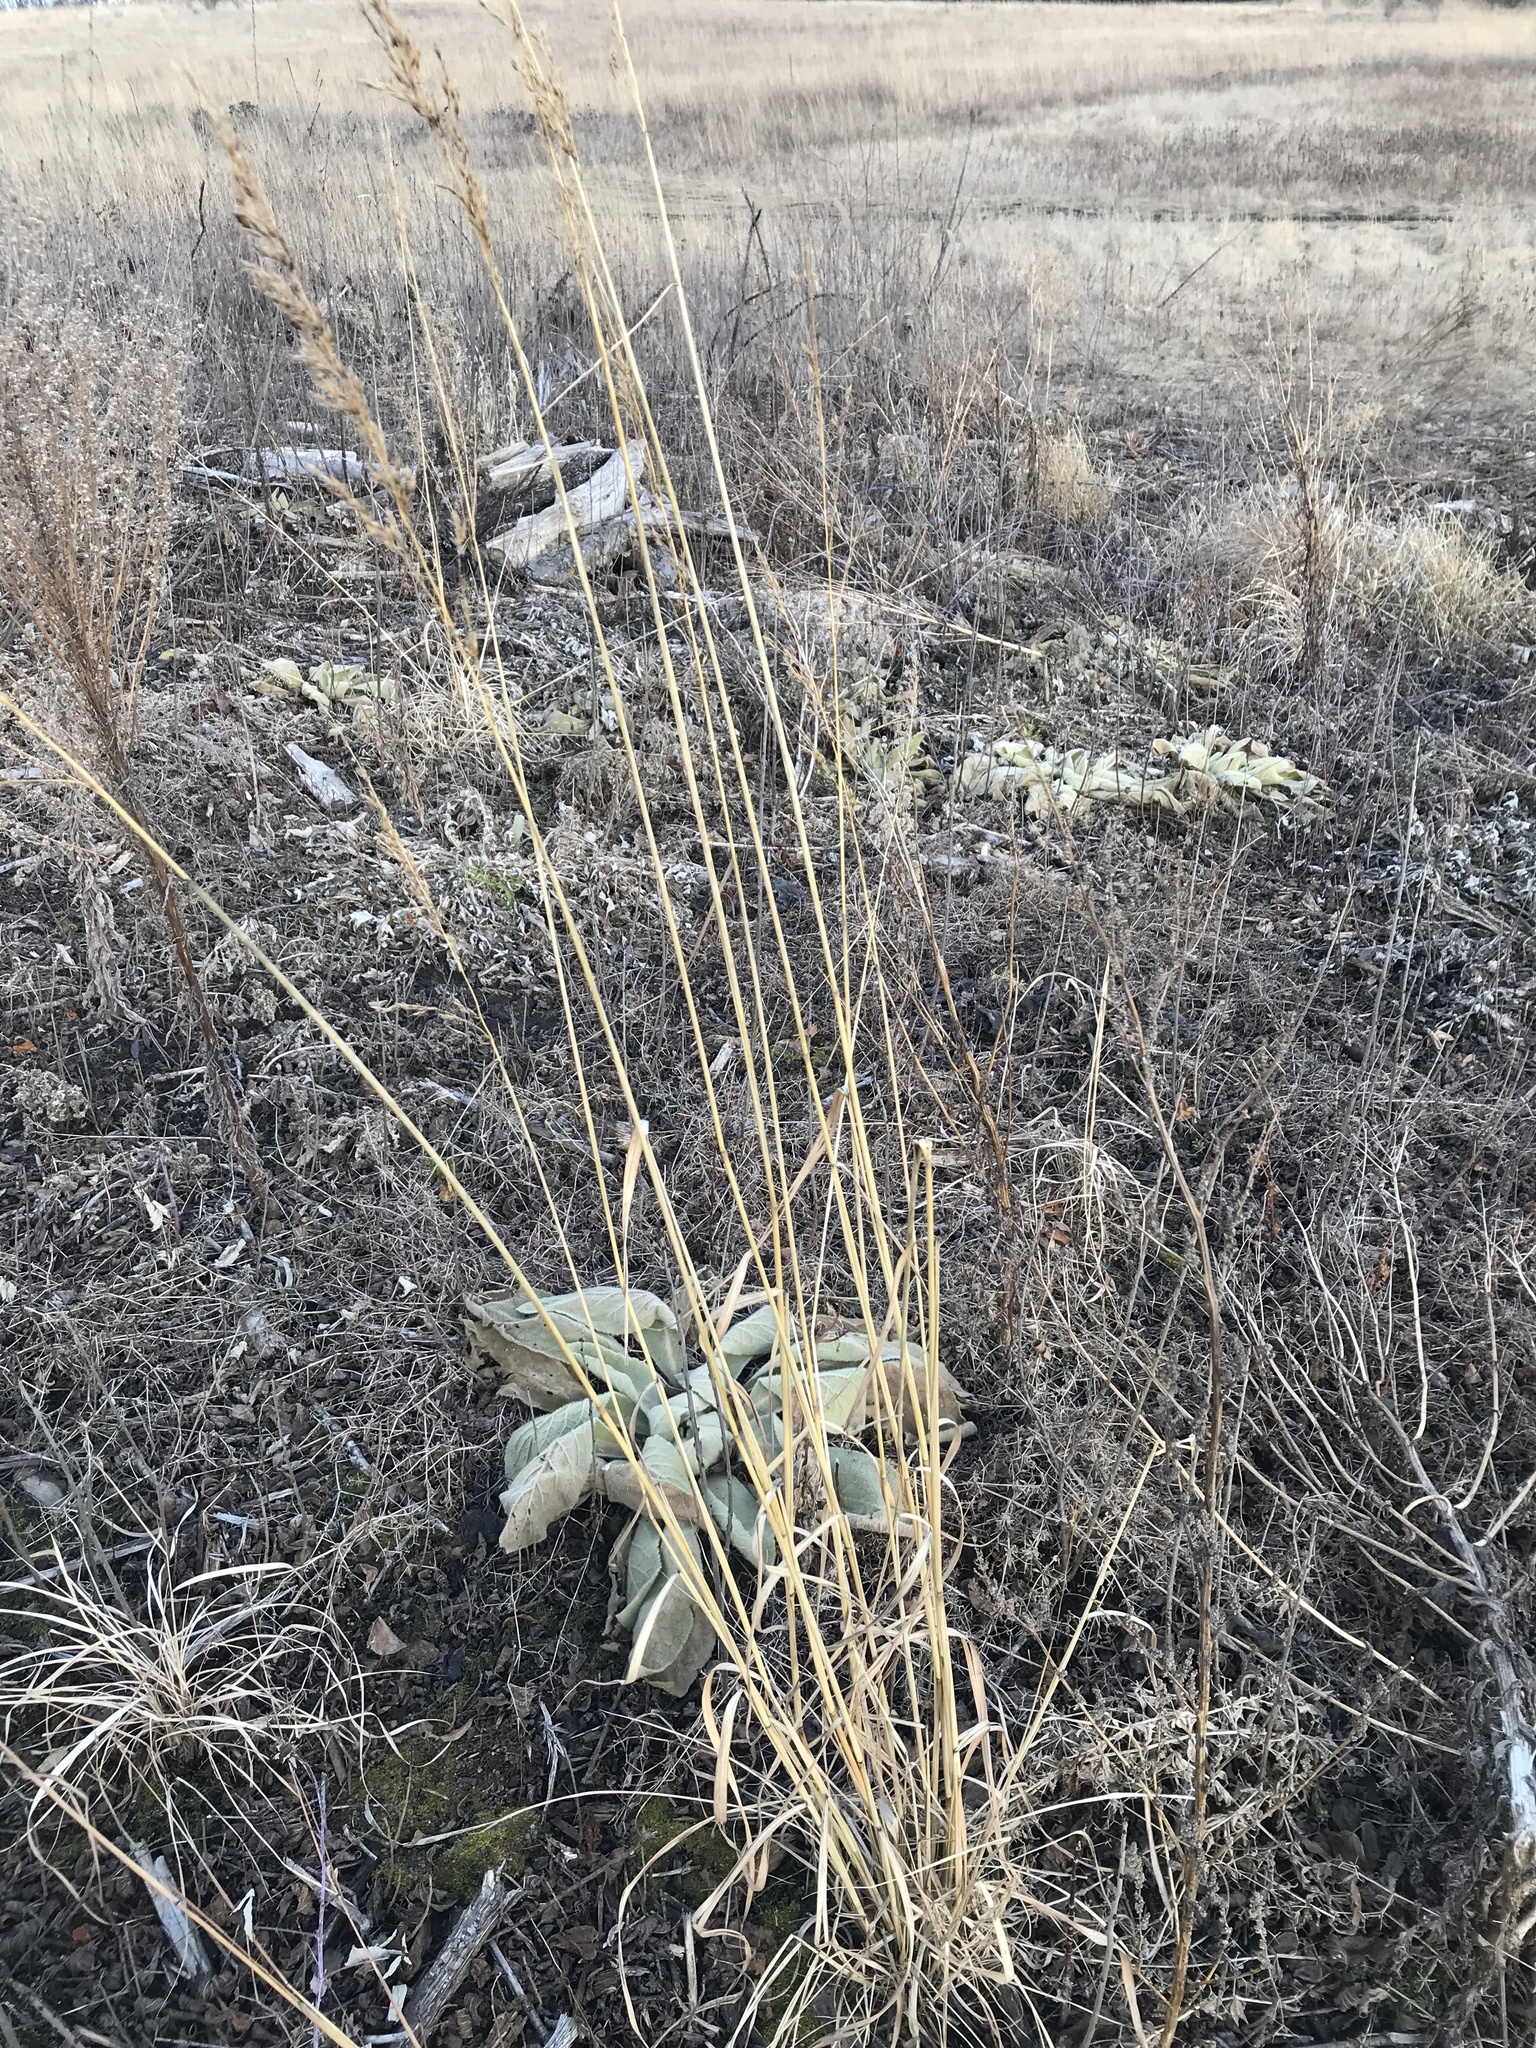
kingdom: Plantae
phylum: Tracheophyta
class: Liliopsida
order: Poales
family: Poaceae
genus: Sorghastrum
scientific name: Sorghastrum nutans
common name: Indian grass
